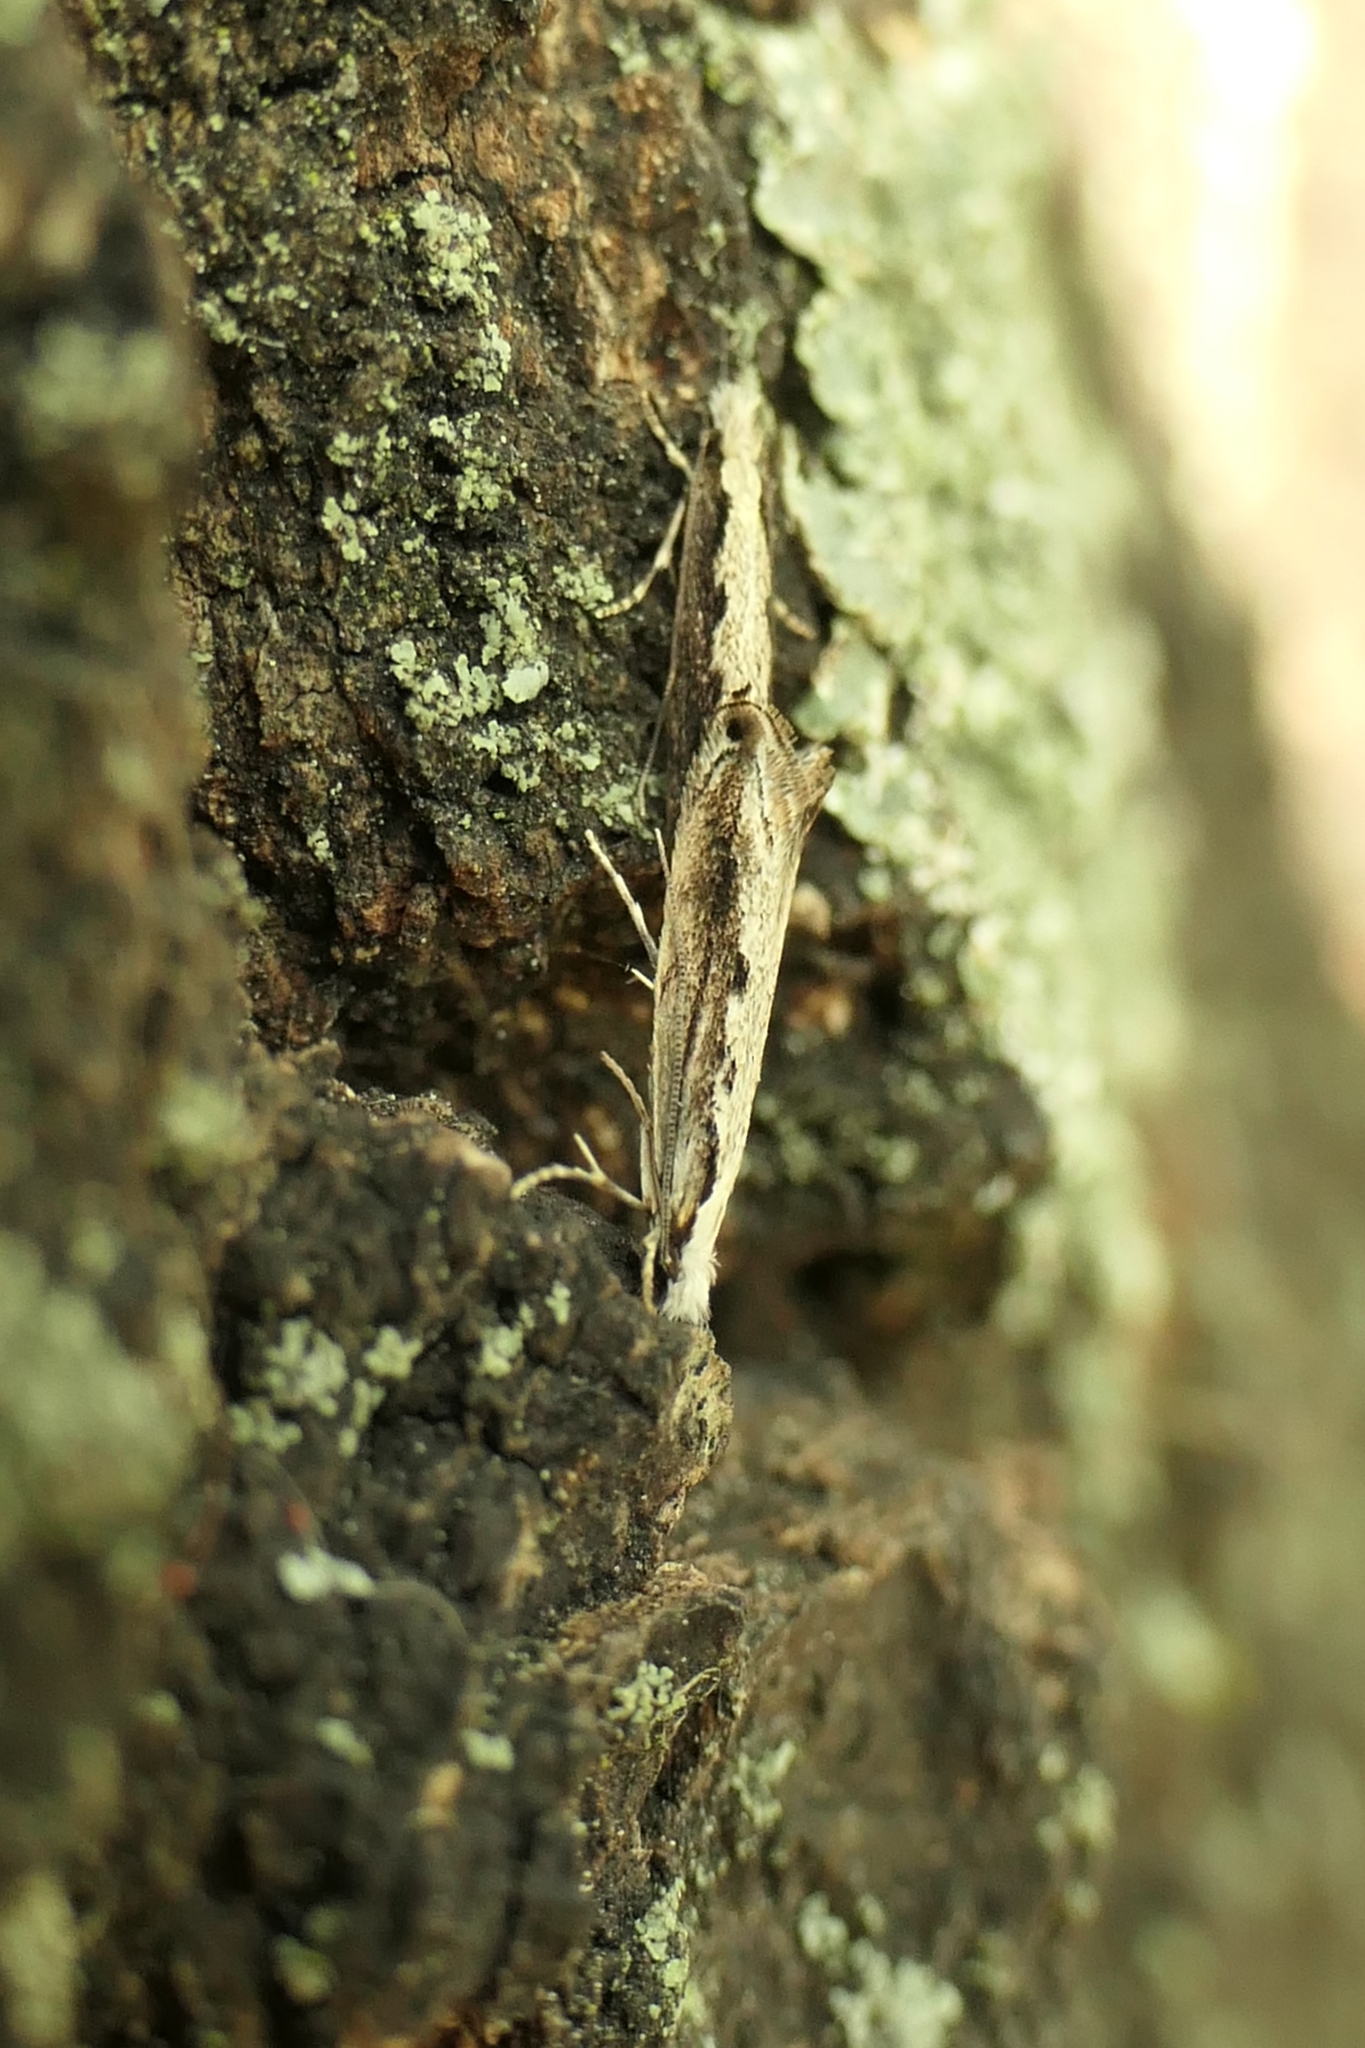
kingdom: Animalia
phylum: Arthropoda
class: Insecta
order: Lepidoptera
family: Tineidae
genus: Erechthias
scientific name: Erechthias fulguritella
